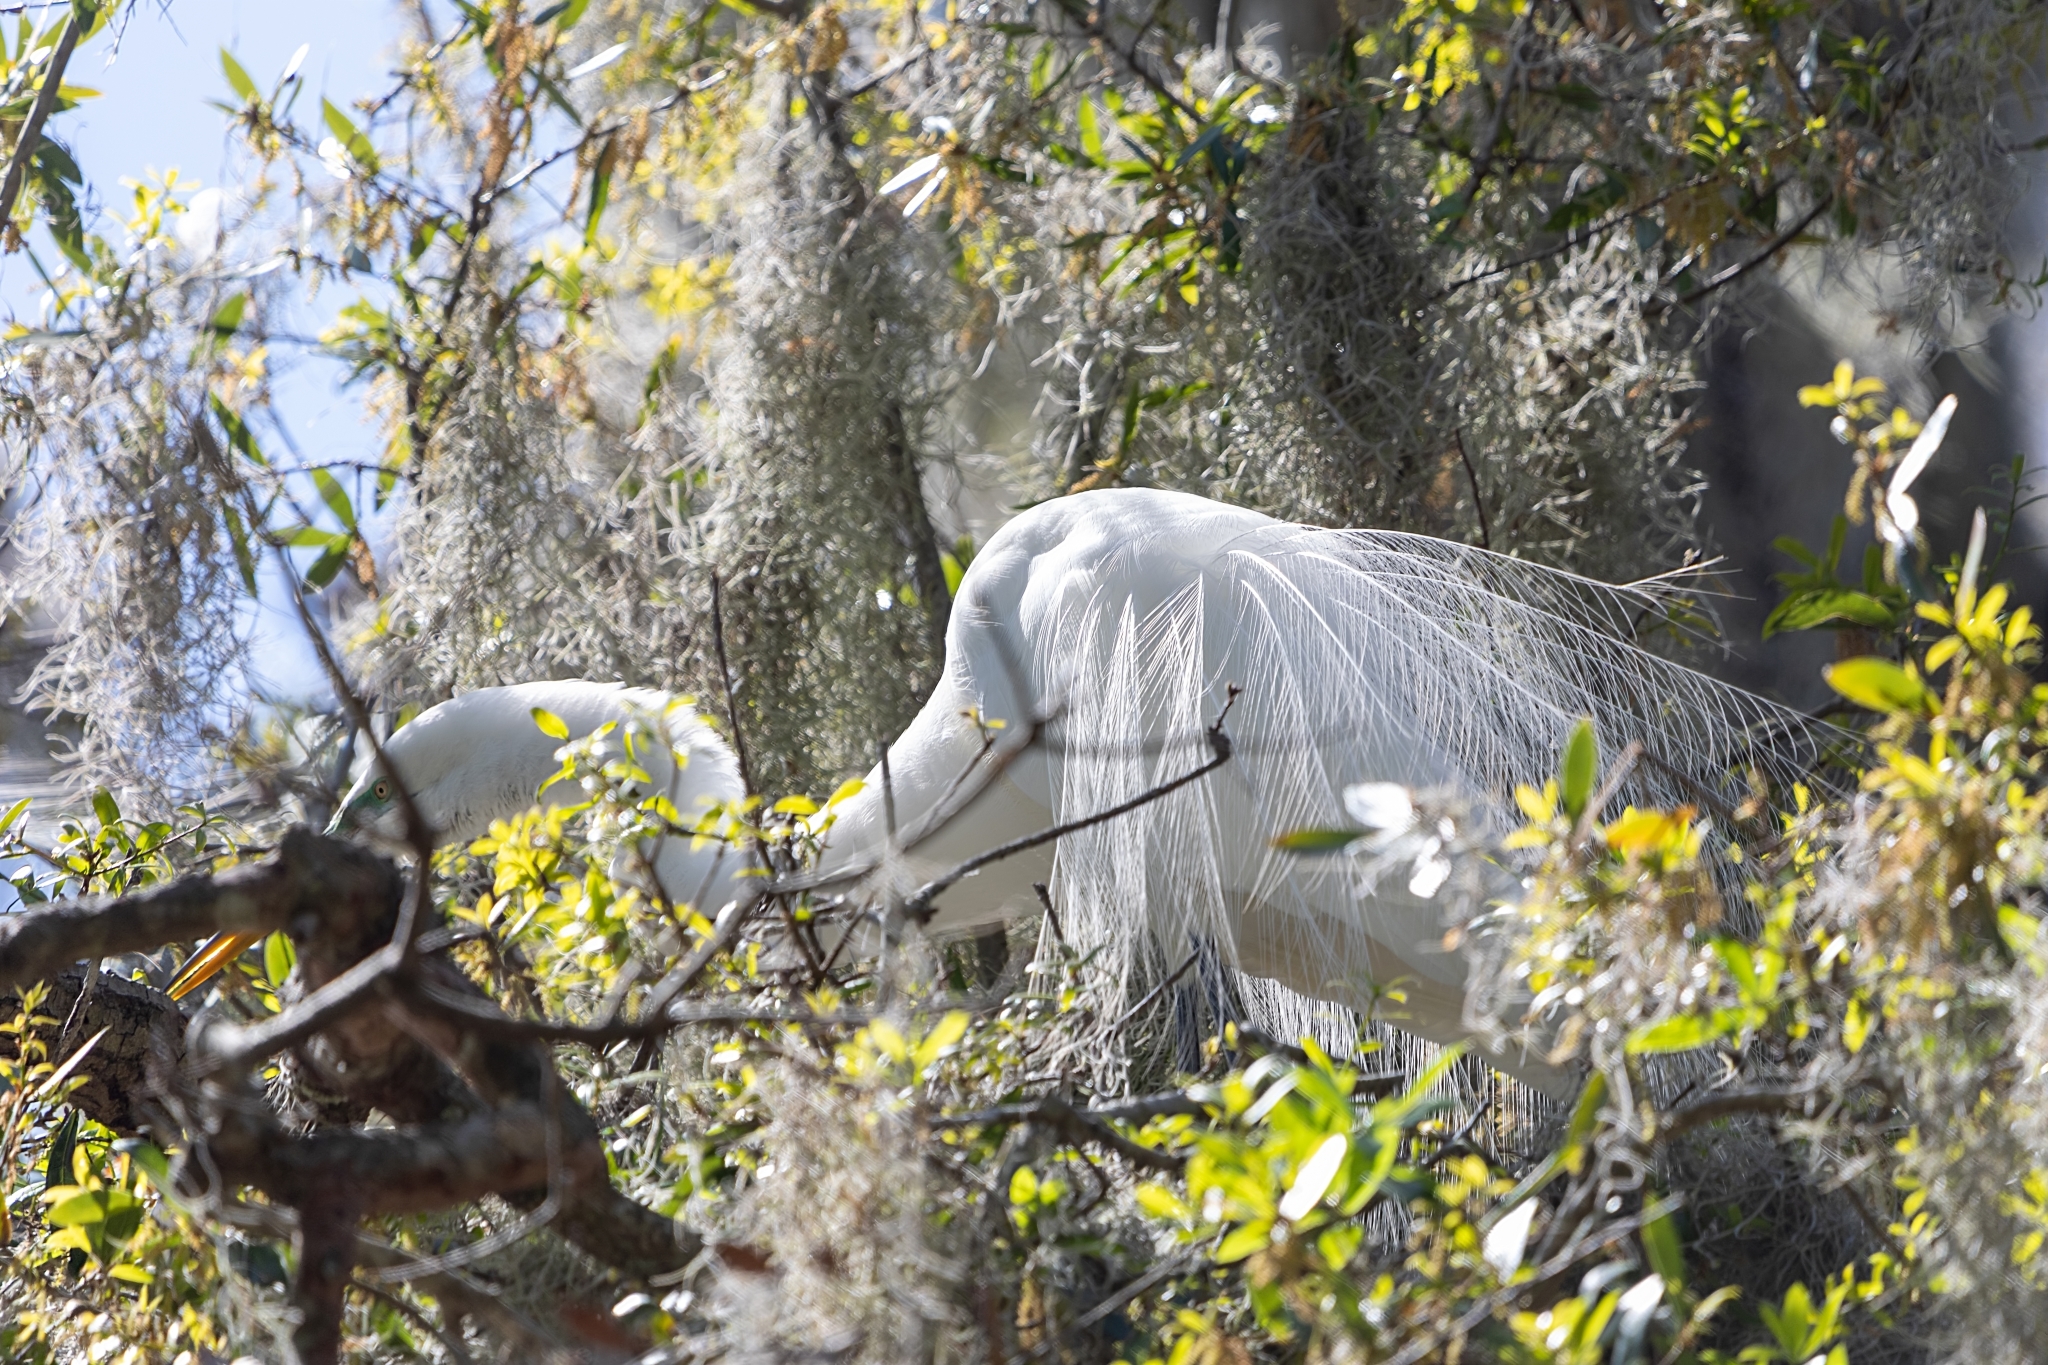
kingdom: Animalia
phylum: Chordata
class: Aves
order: Pelecaniformes
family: Ardeidae
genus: Ardea
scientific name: Ardea alba
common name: Great egret
